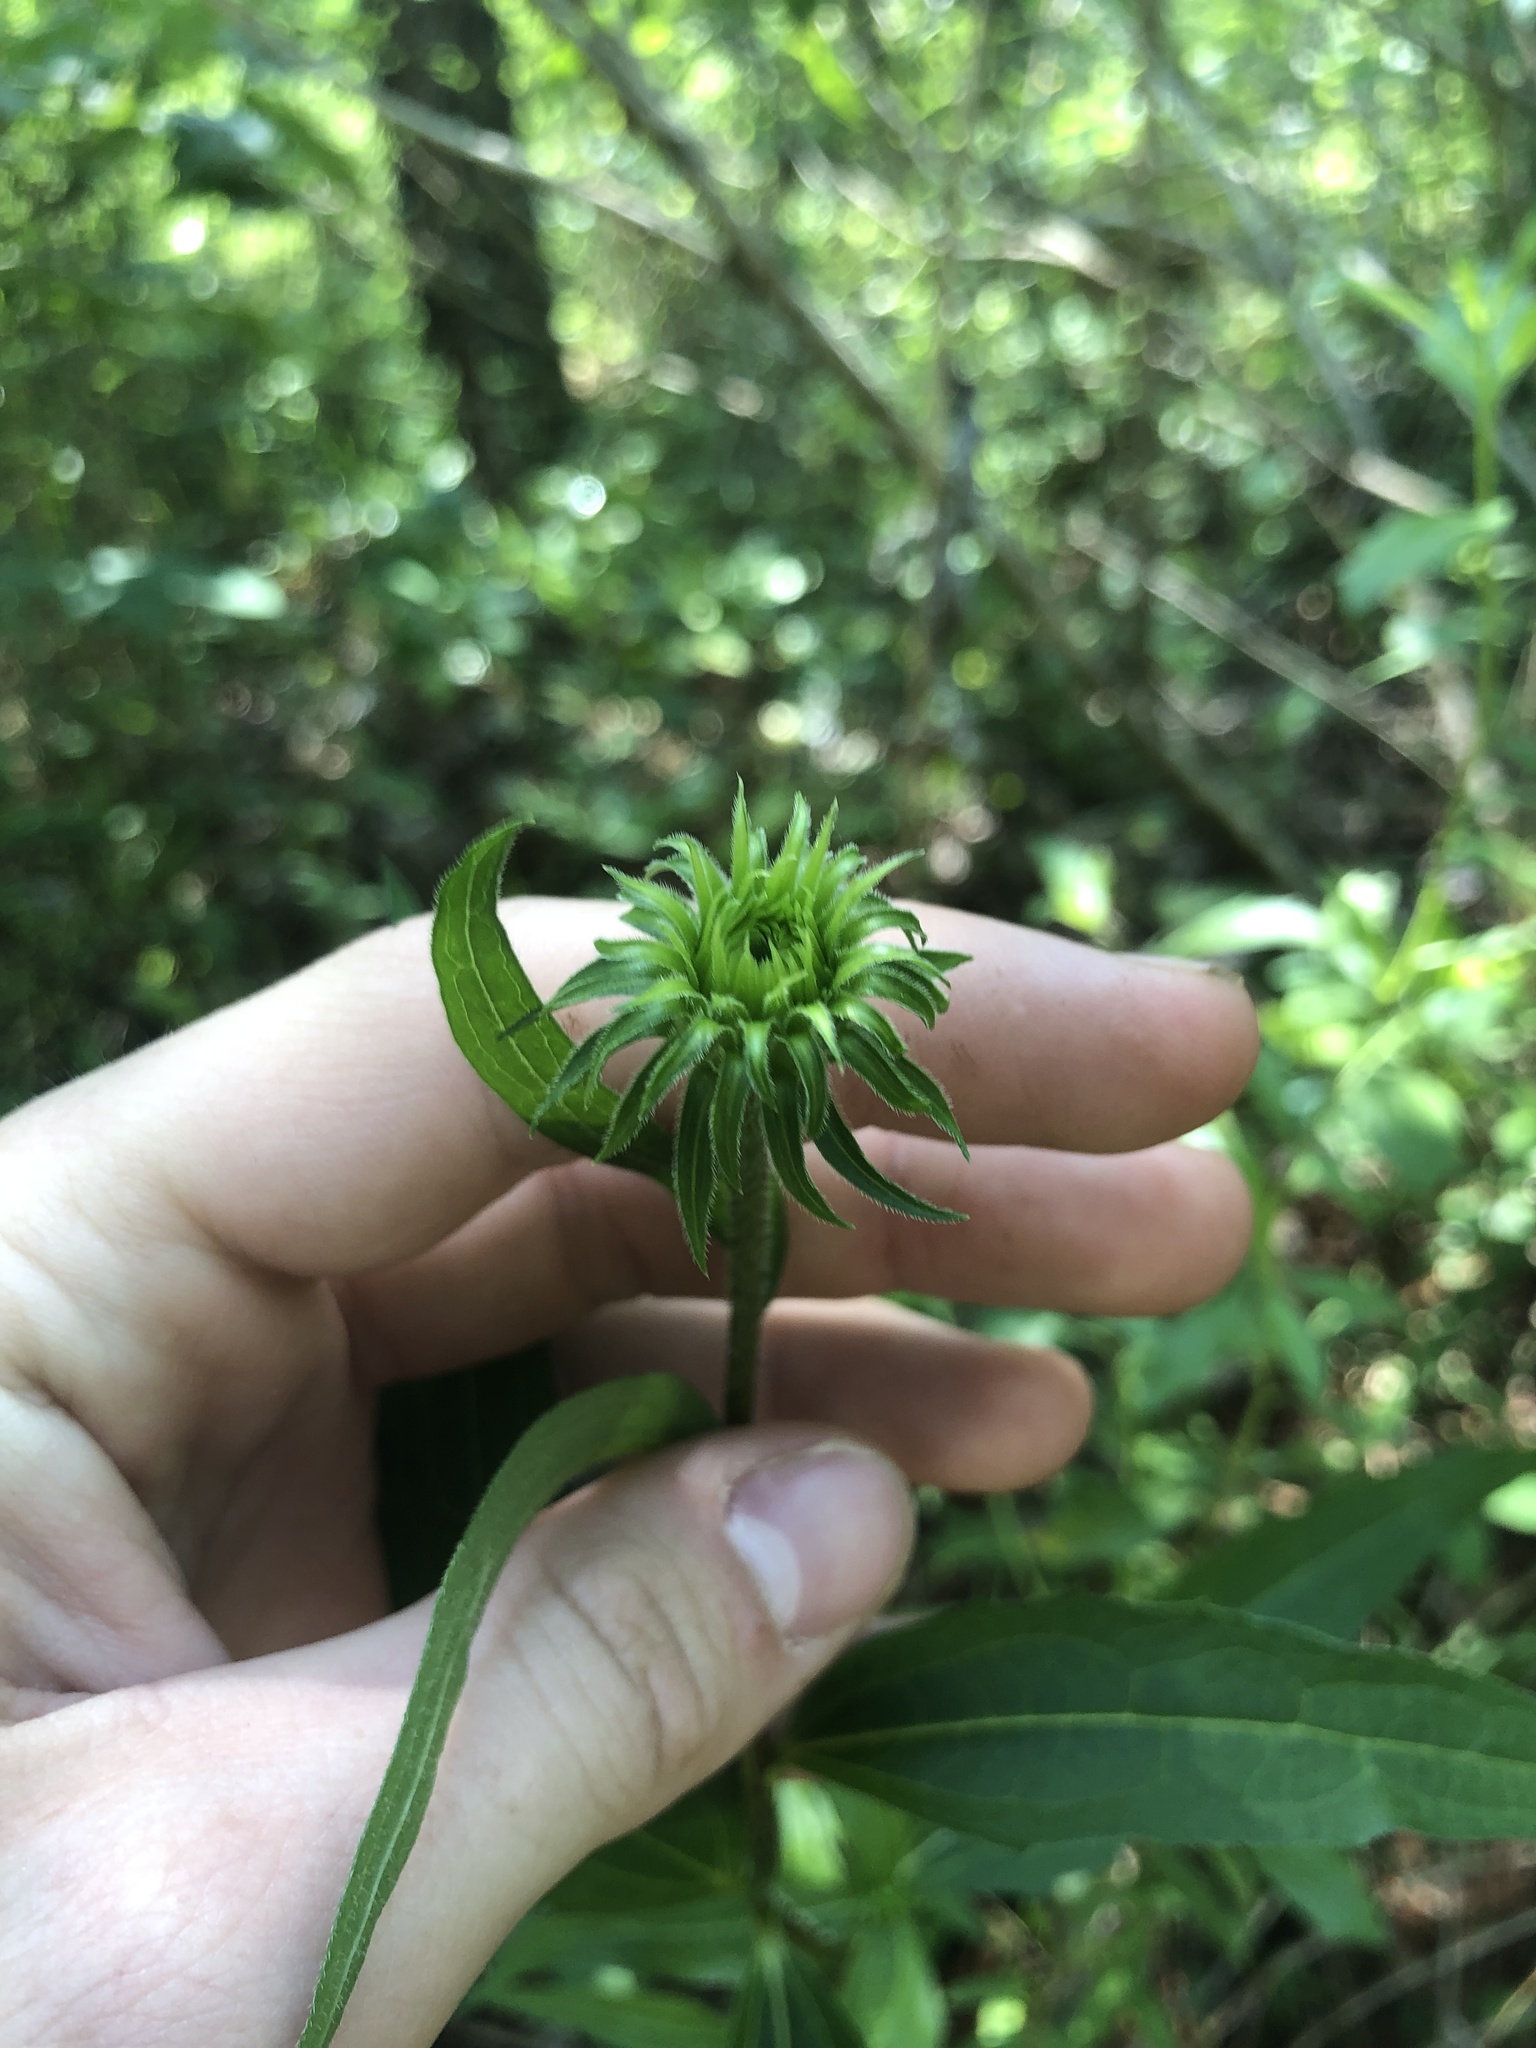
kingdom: Plantae
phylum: Tracheophyta
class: Magnoliopsida
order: Asterales
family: Asteraceae
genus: Echinacea
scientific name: Echinacea purpurea
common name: Broad-leaved purple coneflower
